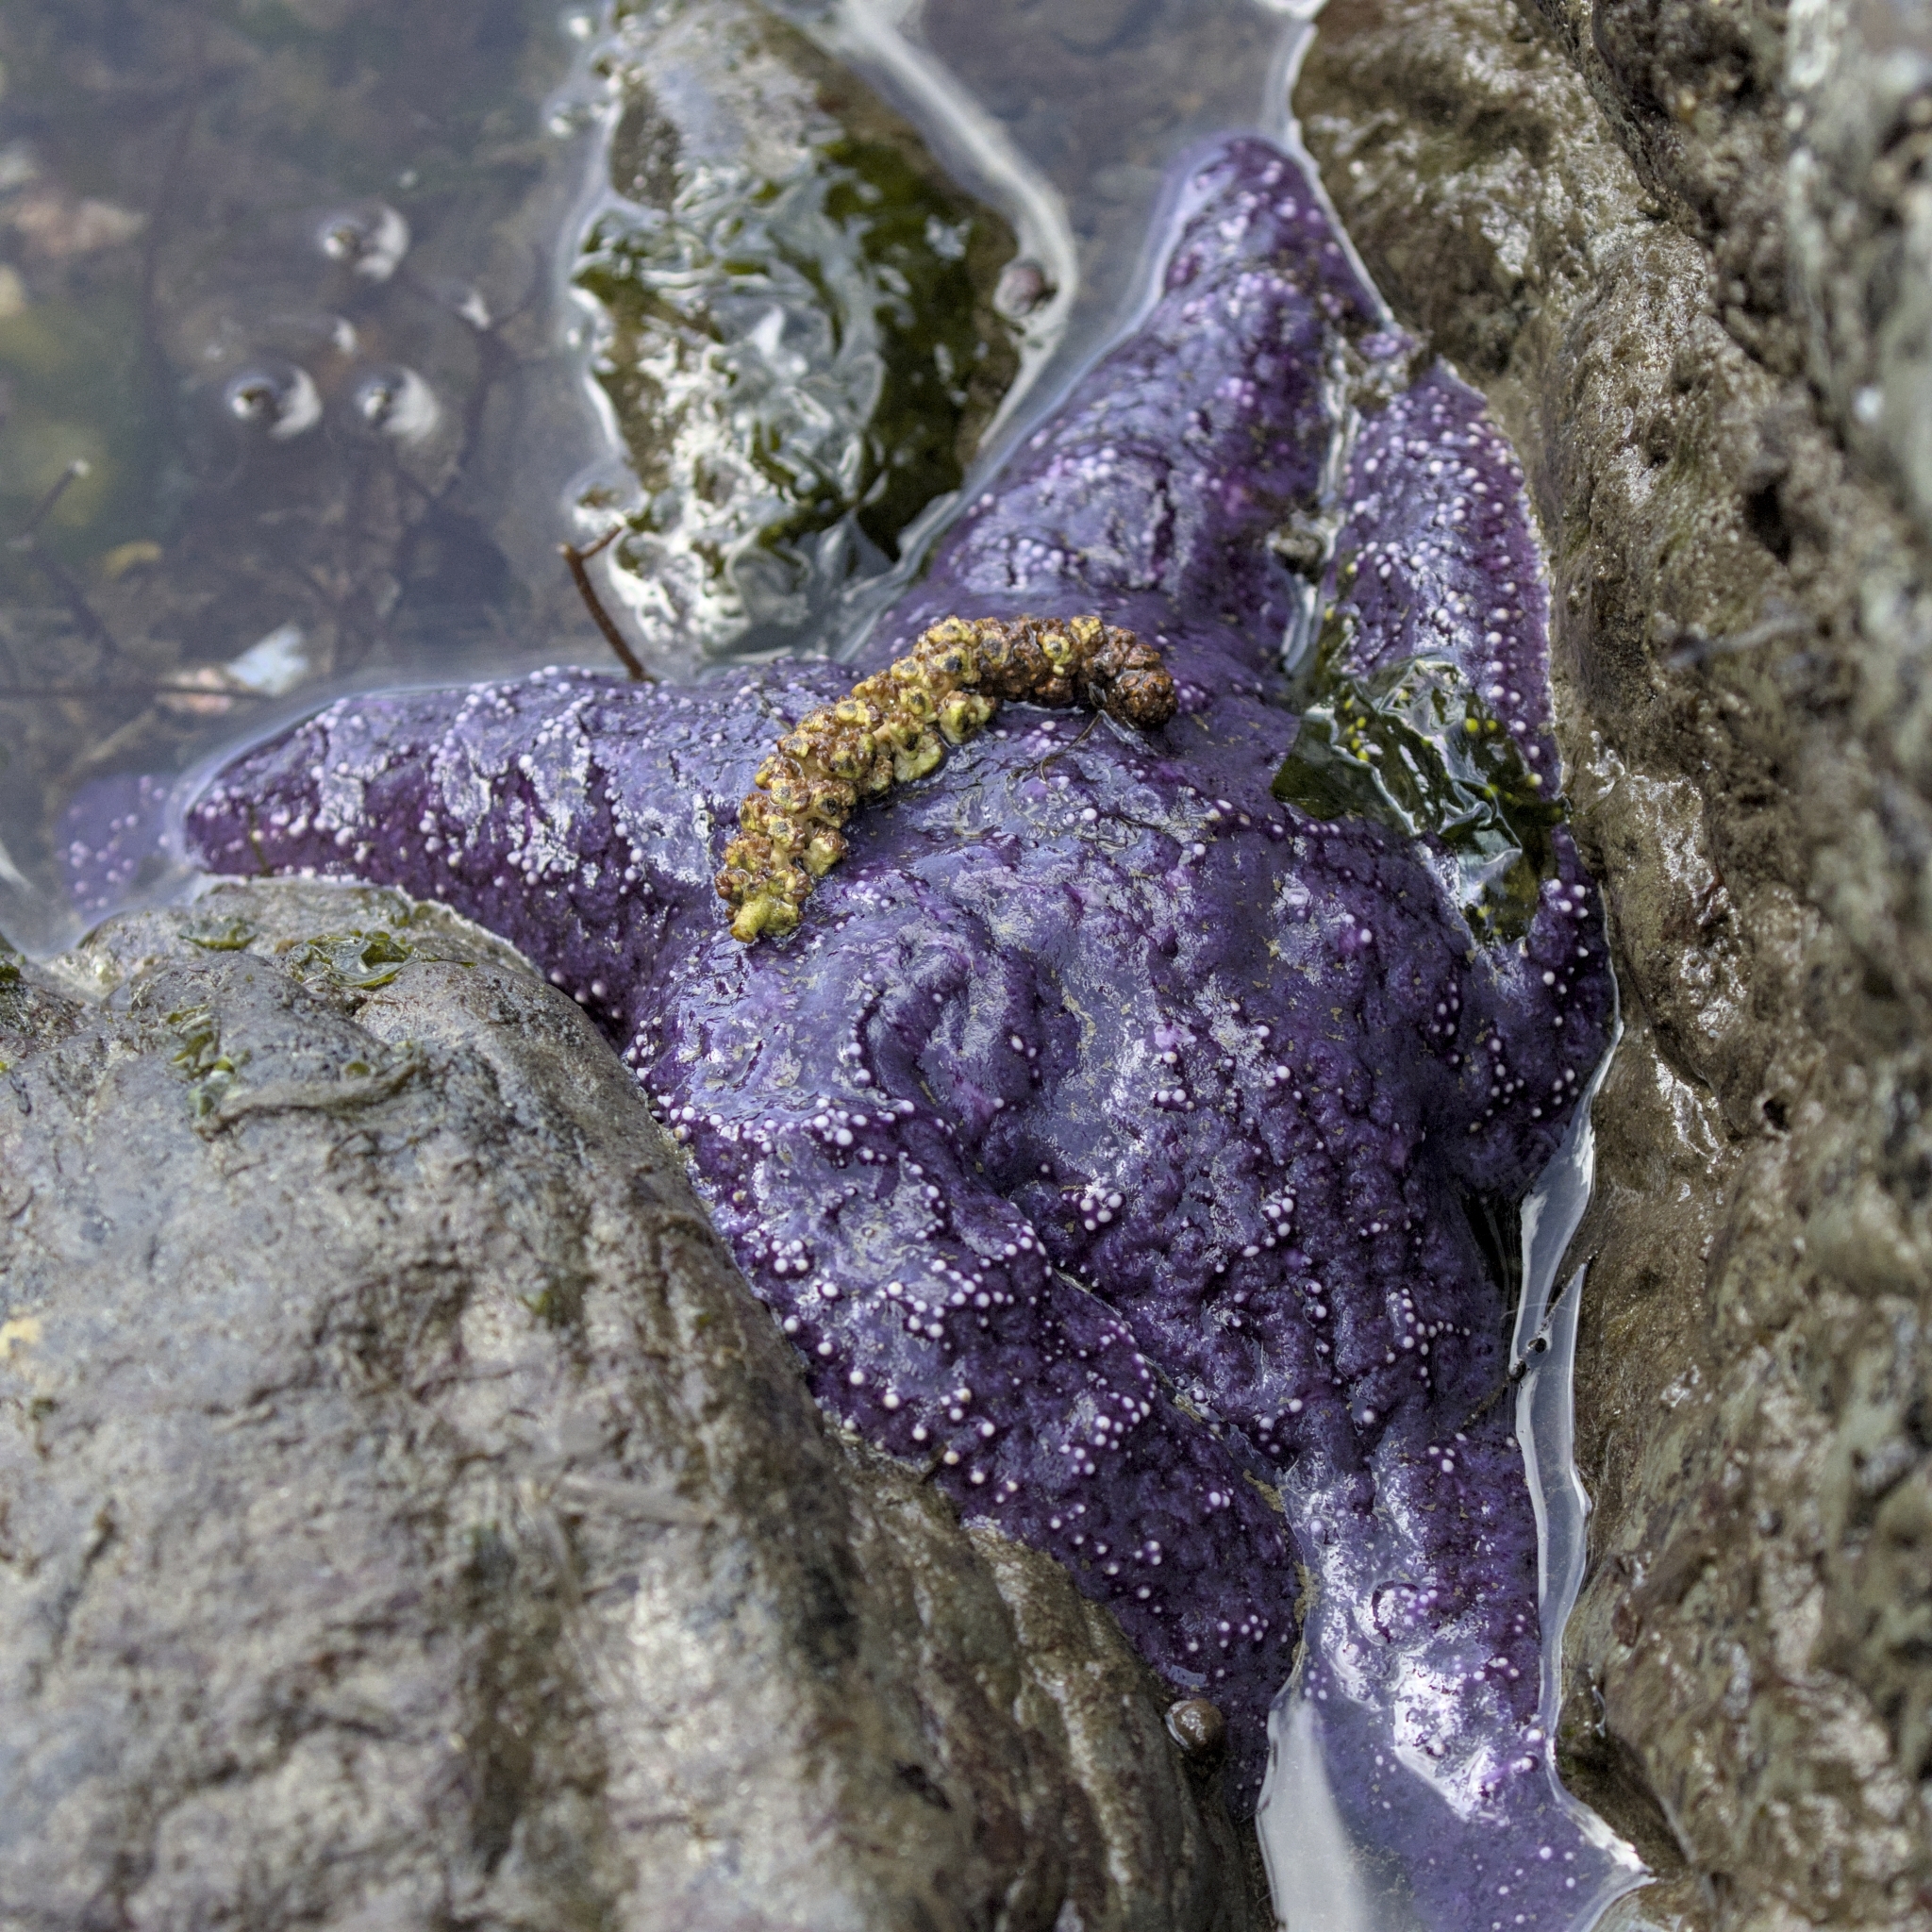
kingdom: Animalia
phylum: Echinodermata
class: Asteroidea
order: Forcipulatida
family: Asteriidae
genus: Pisaster
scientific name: Pisaster ochraceus
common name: Ochre stars
